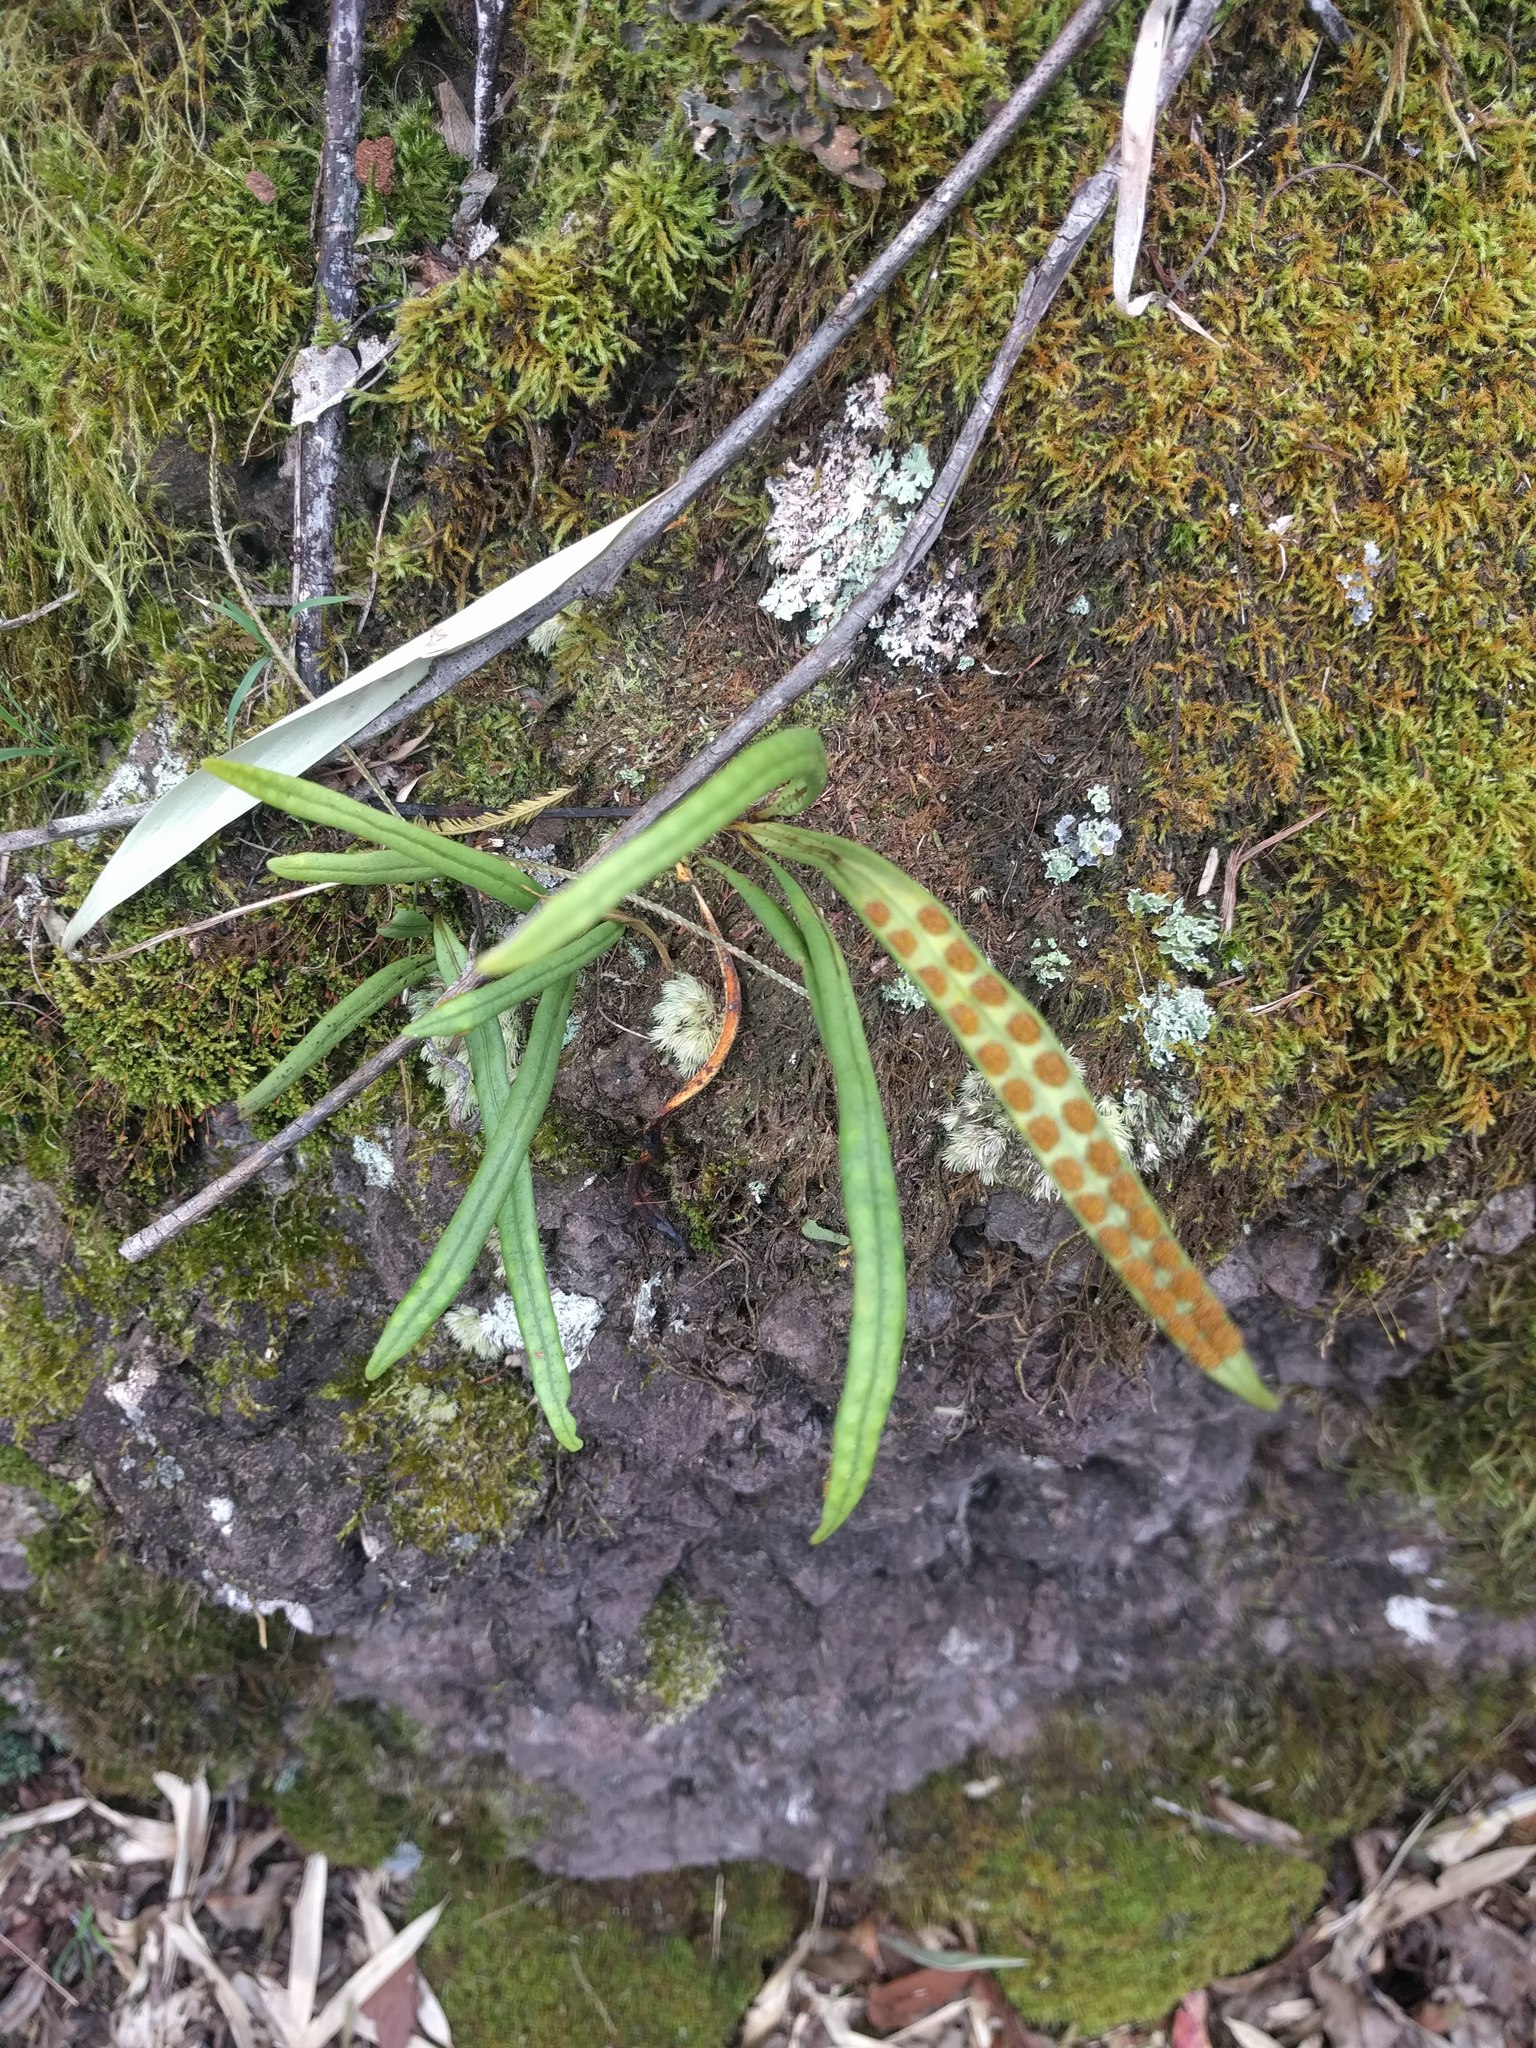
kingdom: Plantae
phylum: Tracheophyta
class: Polypodiopsida
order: Polypodiales
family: Polypodiaceae
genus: Lepisorus
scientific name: Lepisorus thunbergianus
